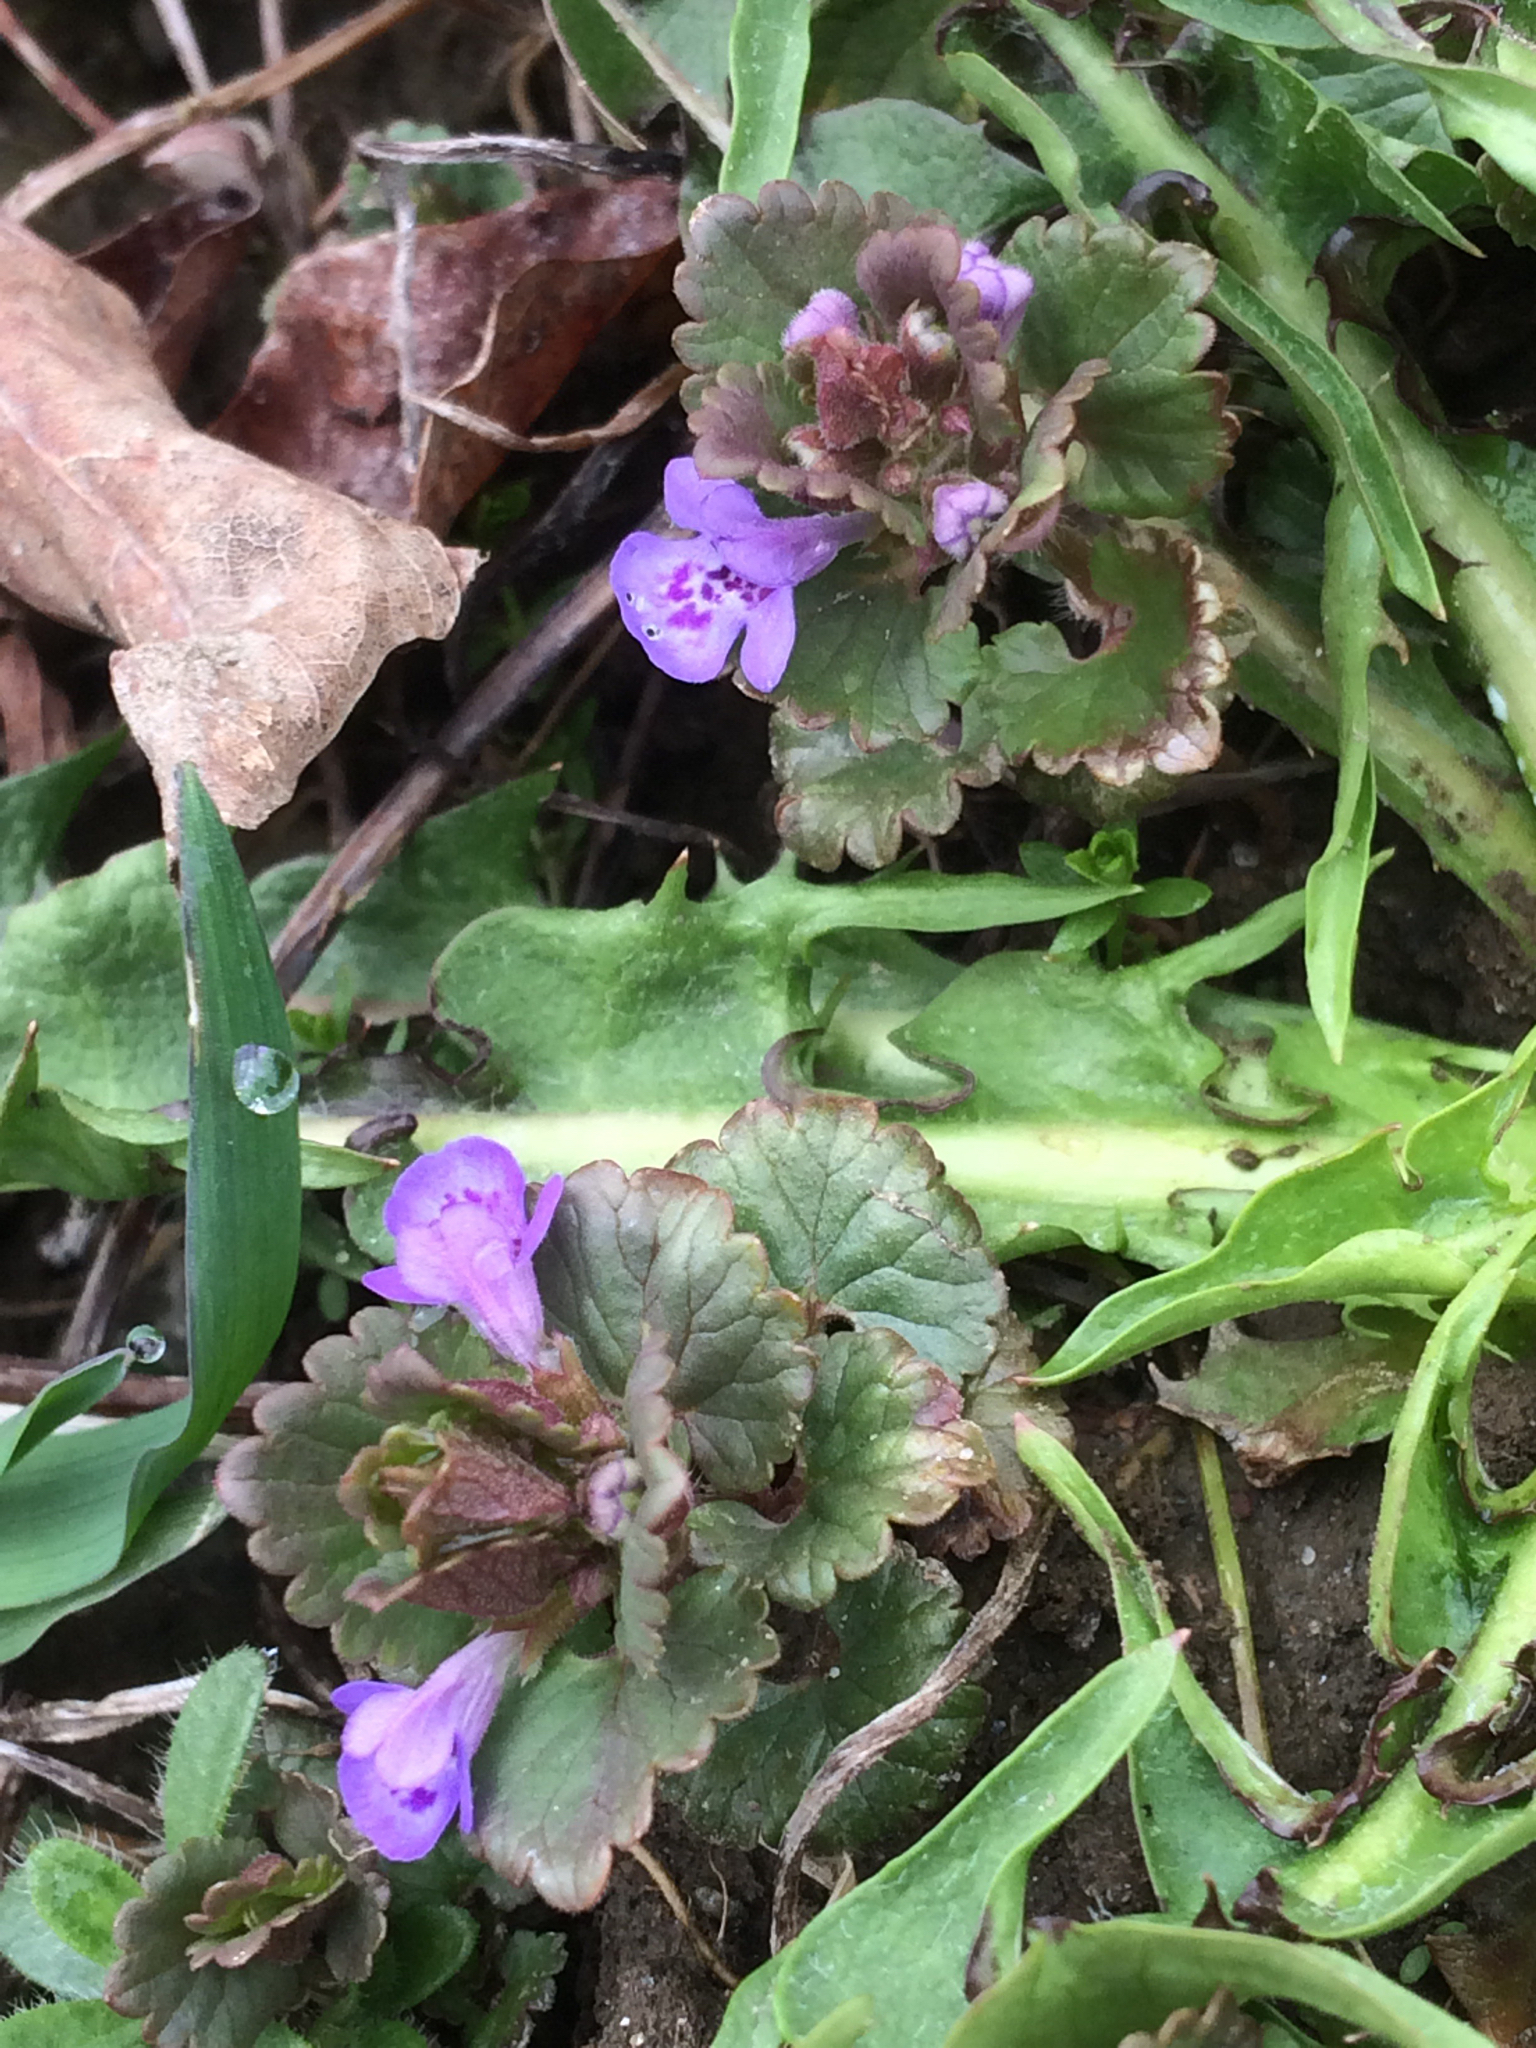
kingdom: Plantae
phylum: Tracheophyta
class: Magnoliopsida
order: Lamiales
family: Lamiaceae
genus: Glechoma
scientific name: Glechoma hederacea
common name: Ground ivy
